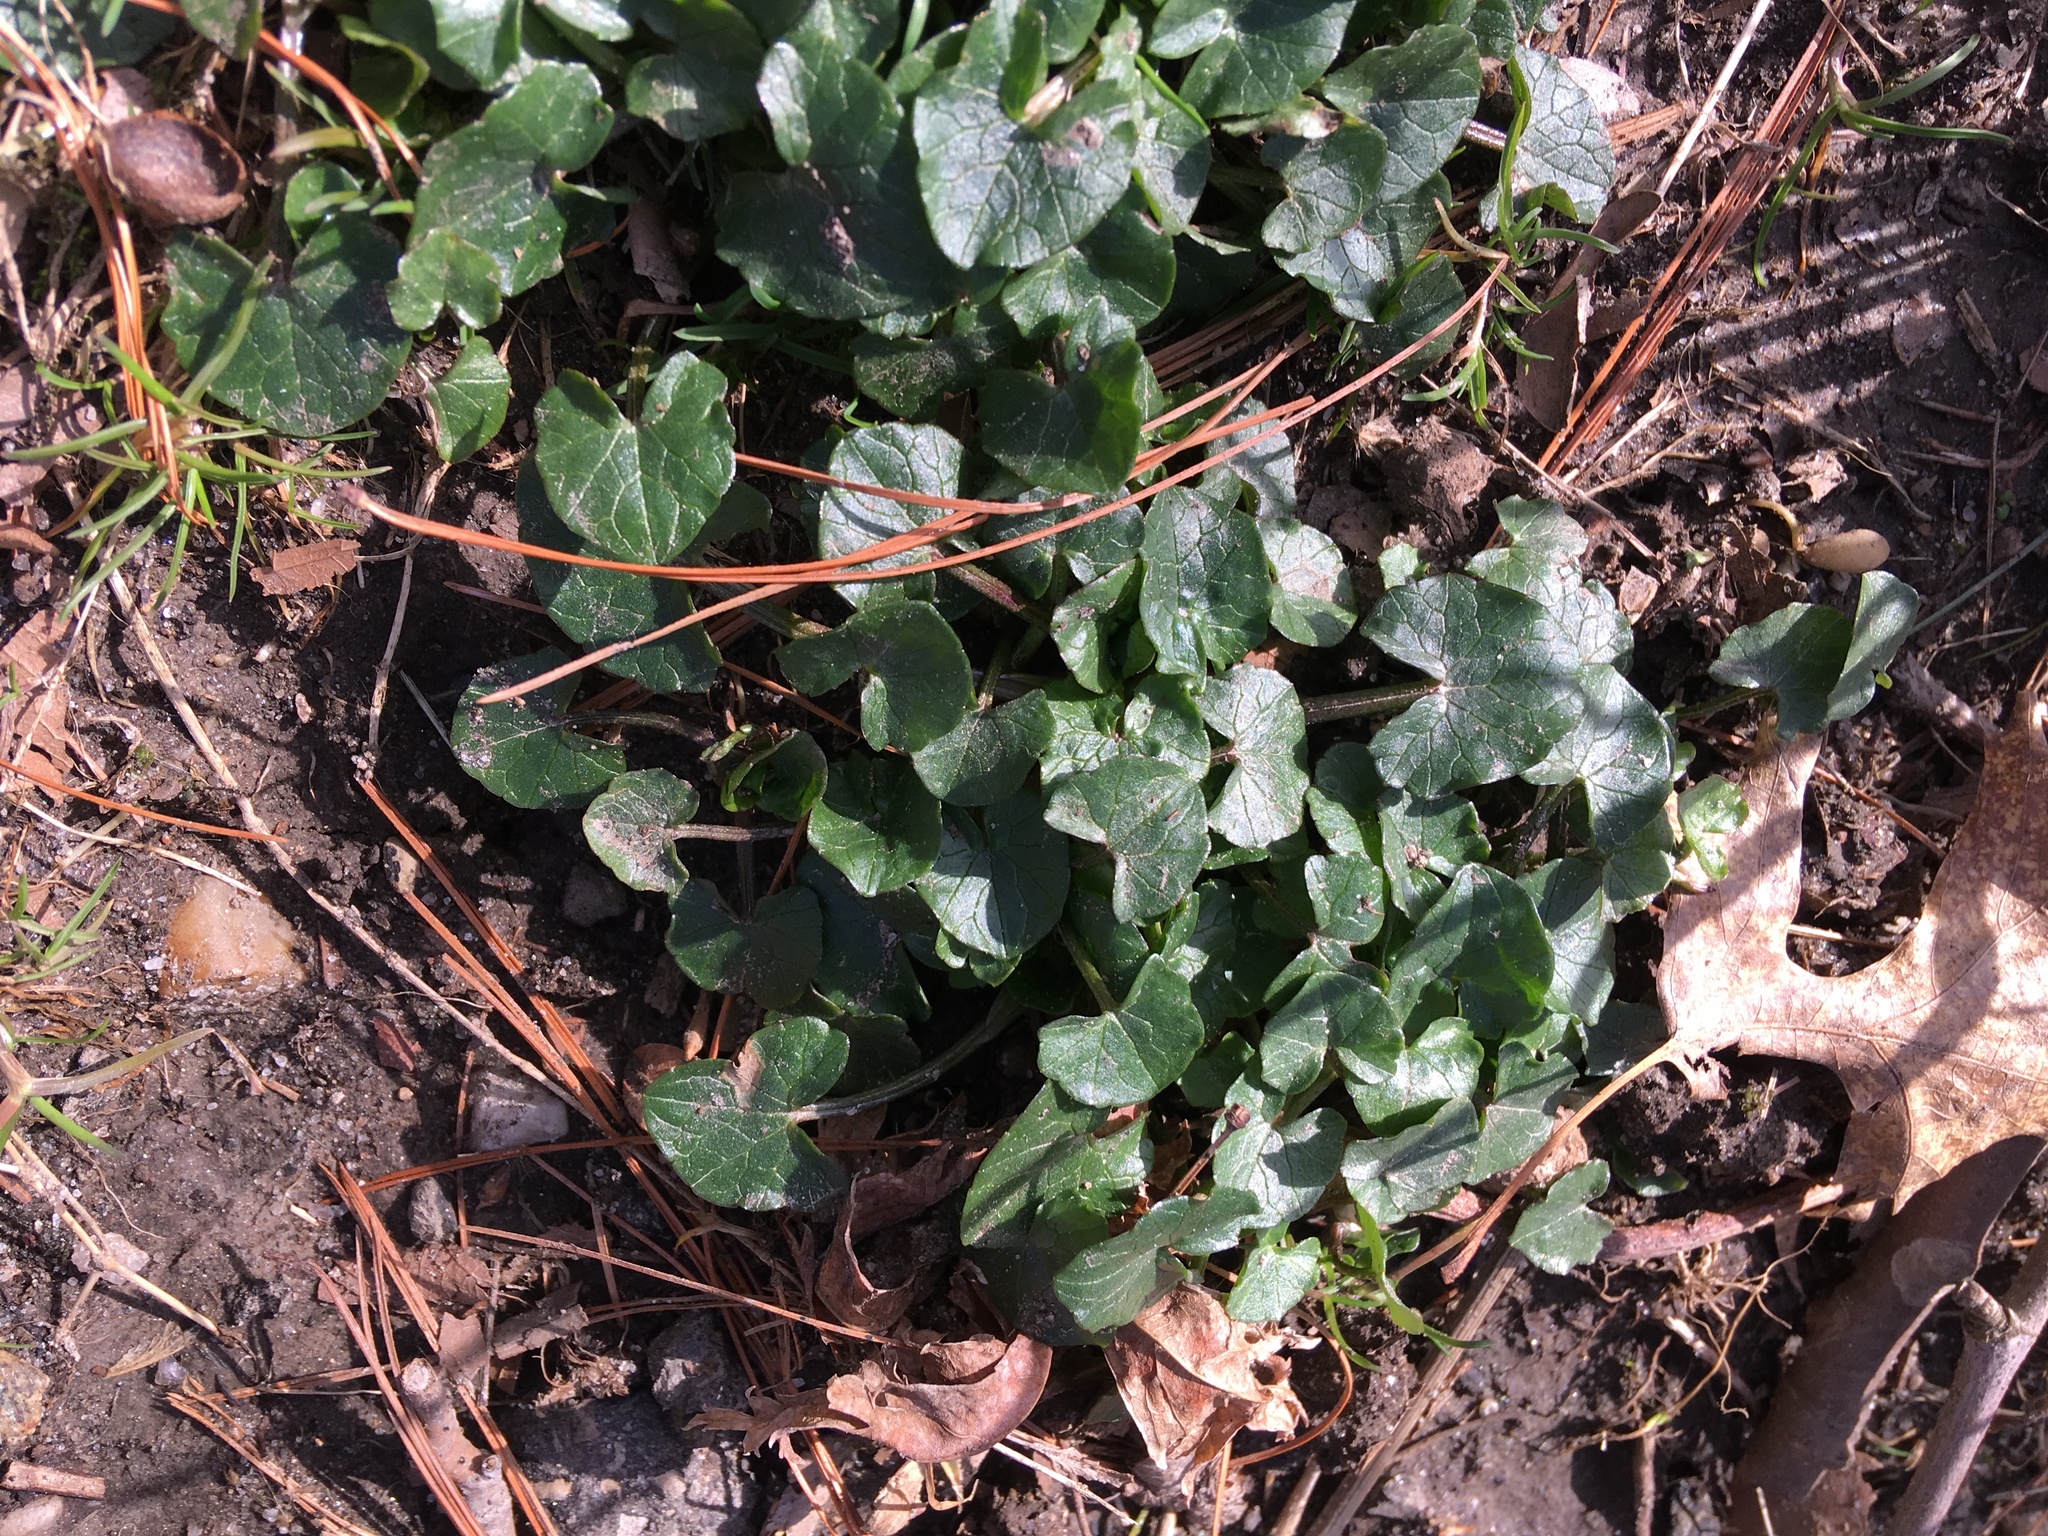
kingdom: Plantae
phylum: Tracheophyta
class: Magnoliopsida
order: Ranunculales
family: Ranunculaceae
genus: Ficaria
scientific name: Ficaria verna
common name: Lesser celandine
